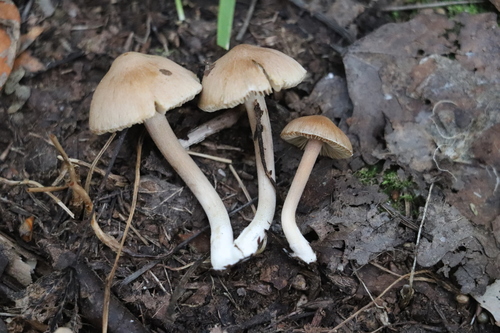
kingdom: Fungi
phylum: Basidiomycota
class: Agaricomycetes
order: Agaricales
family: Inocybaceae
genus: Inocybe
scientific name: Inocybe
